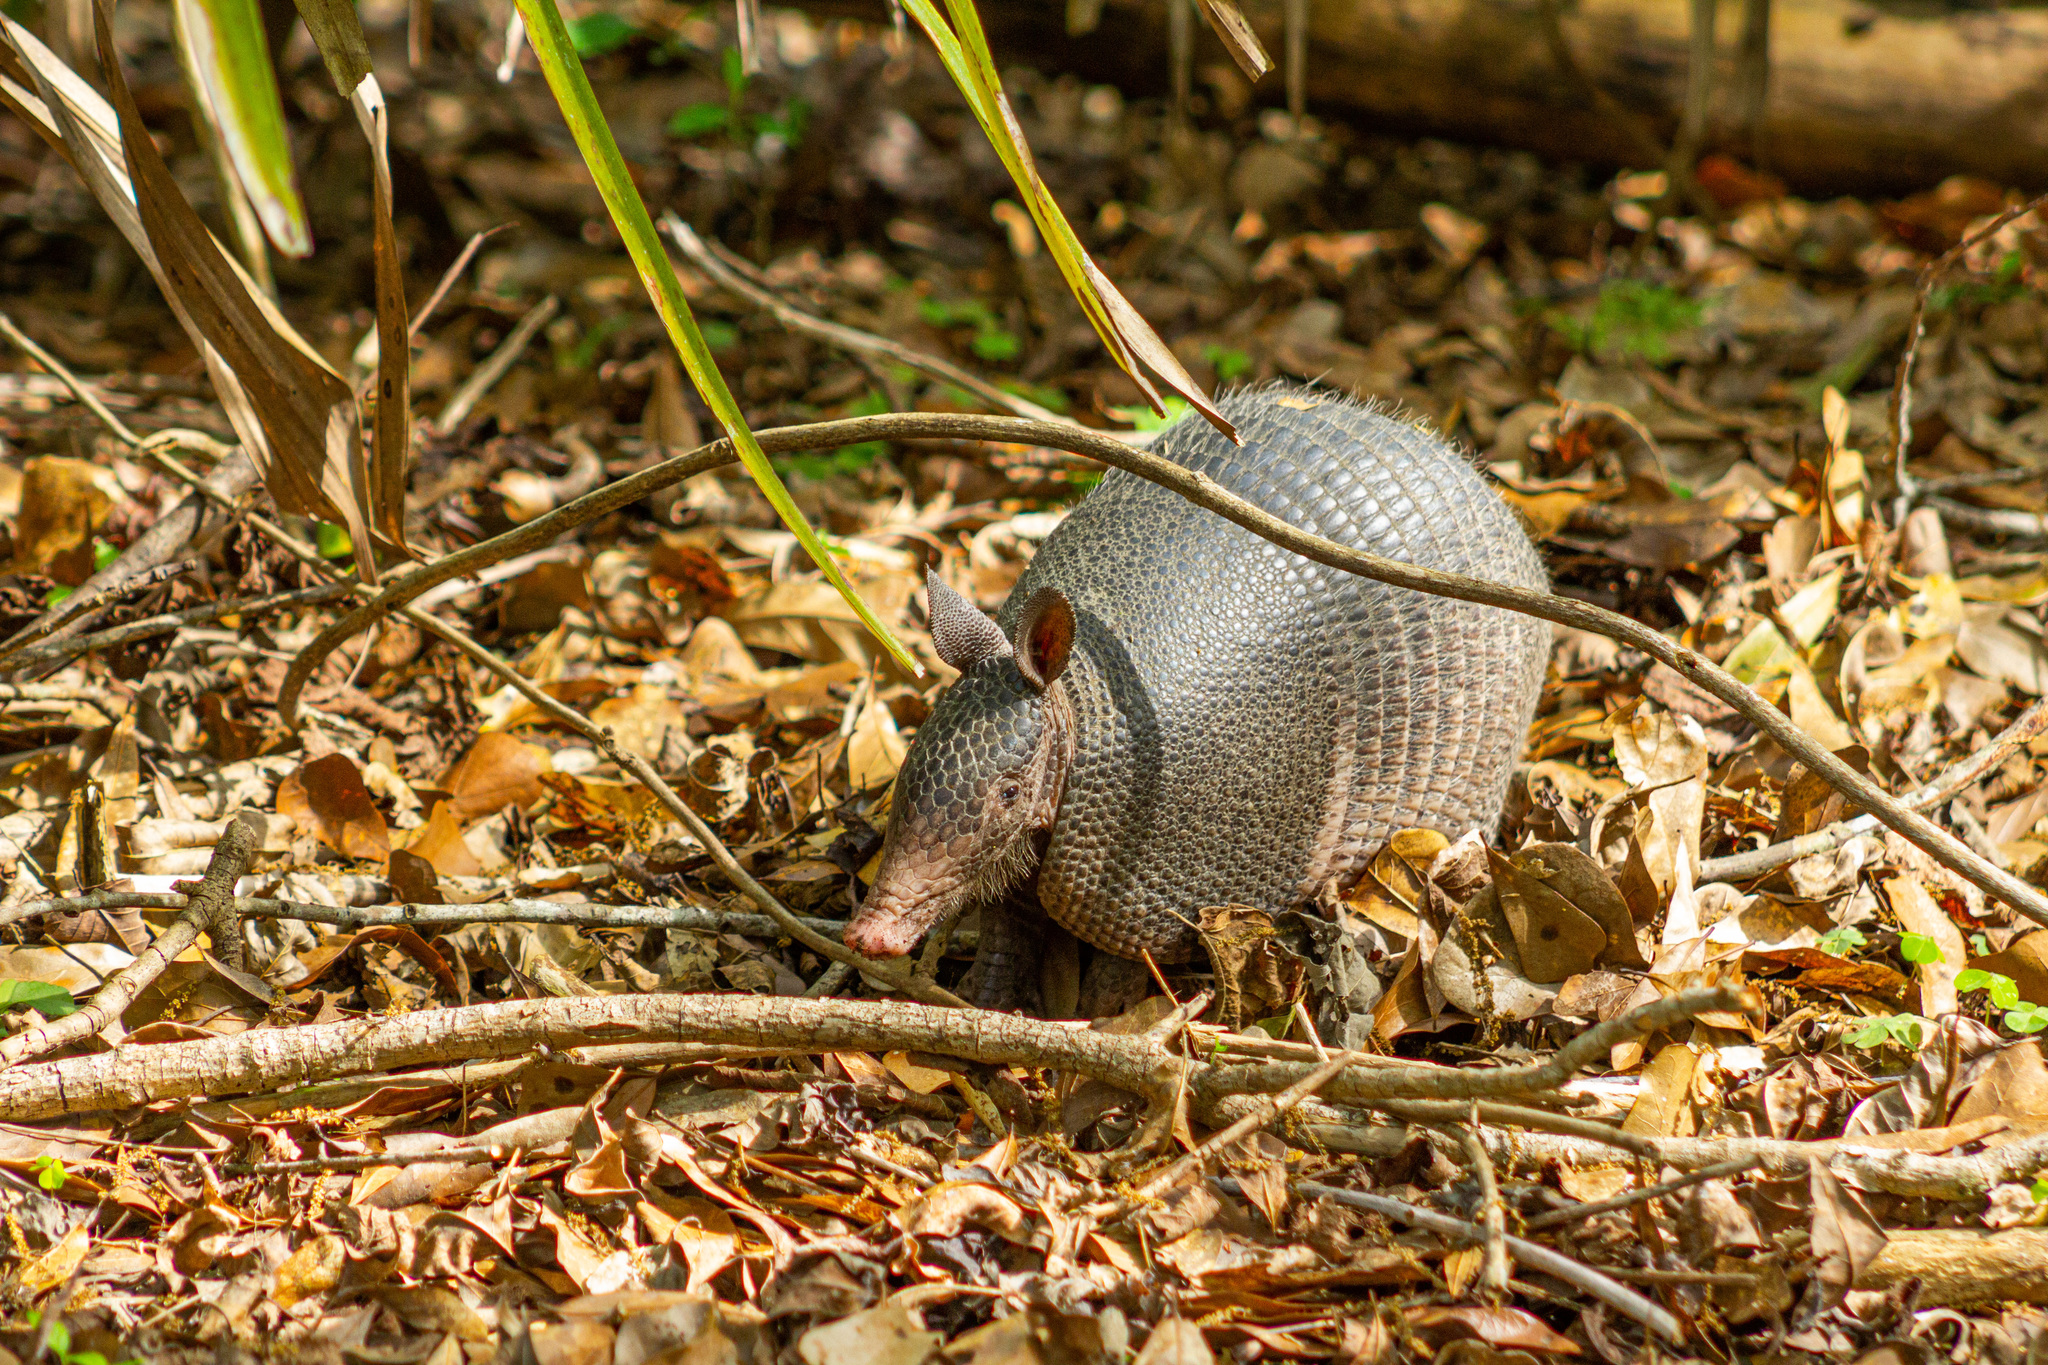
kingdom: Animalia
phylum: Chordata
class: Mammalia
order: Cingulata
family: Dasypodidae
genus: Dasypus
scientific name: Dasypus novemcinctus
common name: Nine-banded armadillo
